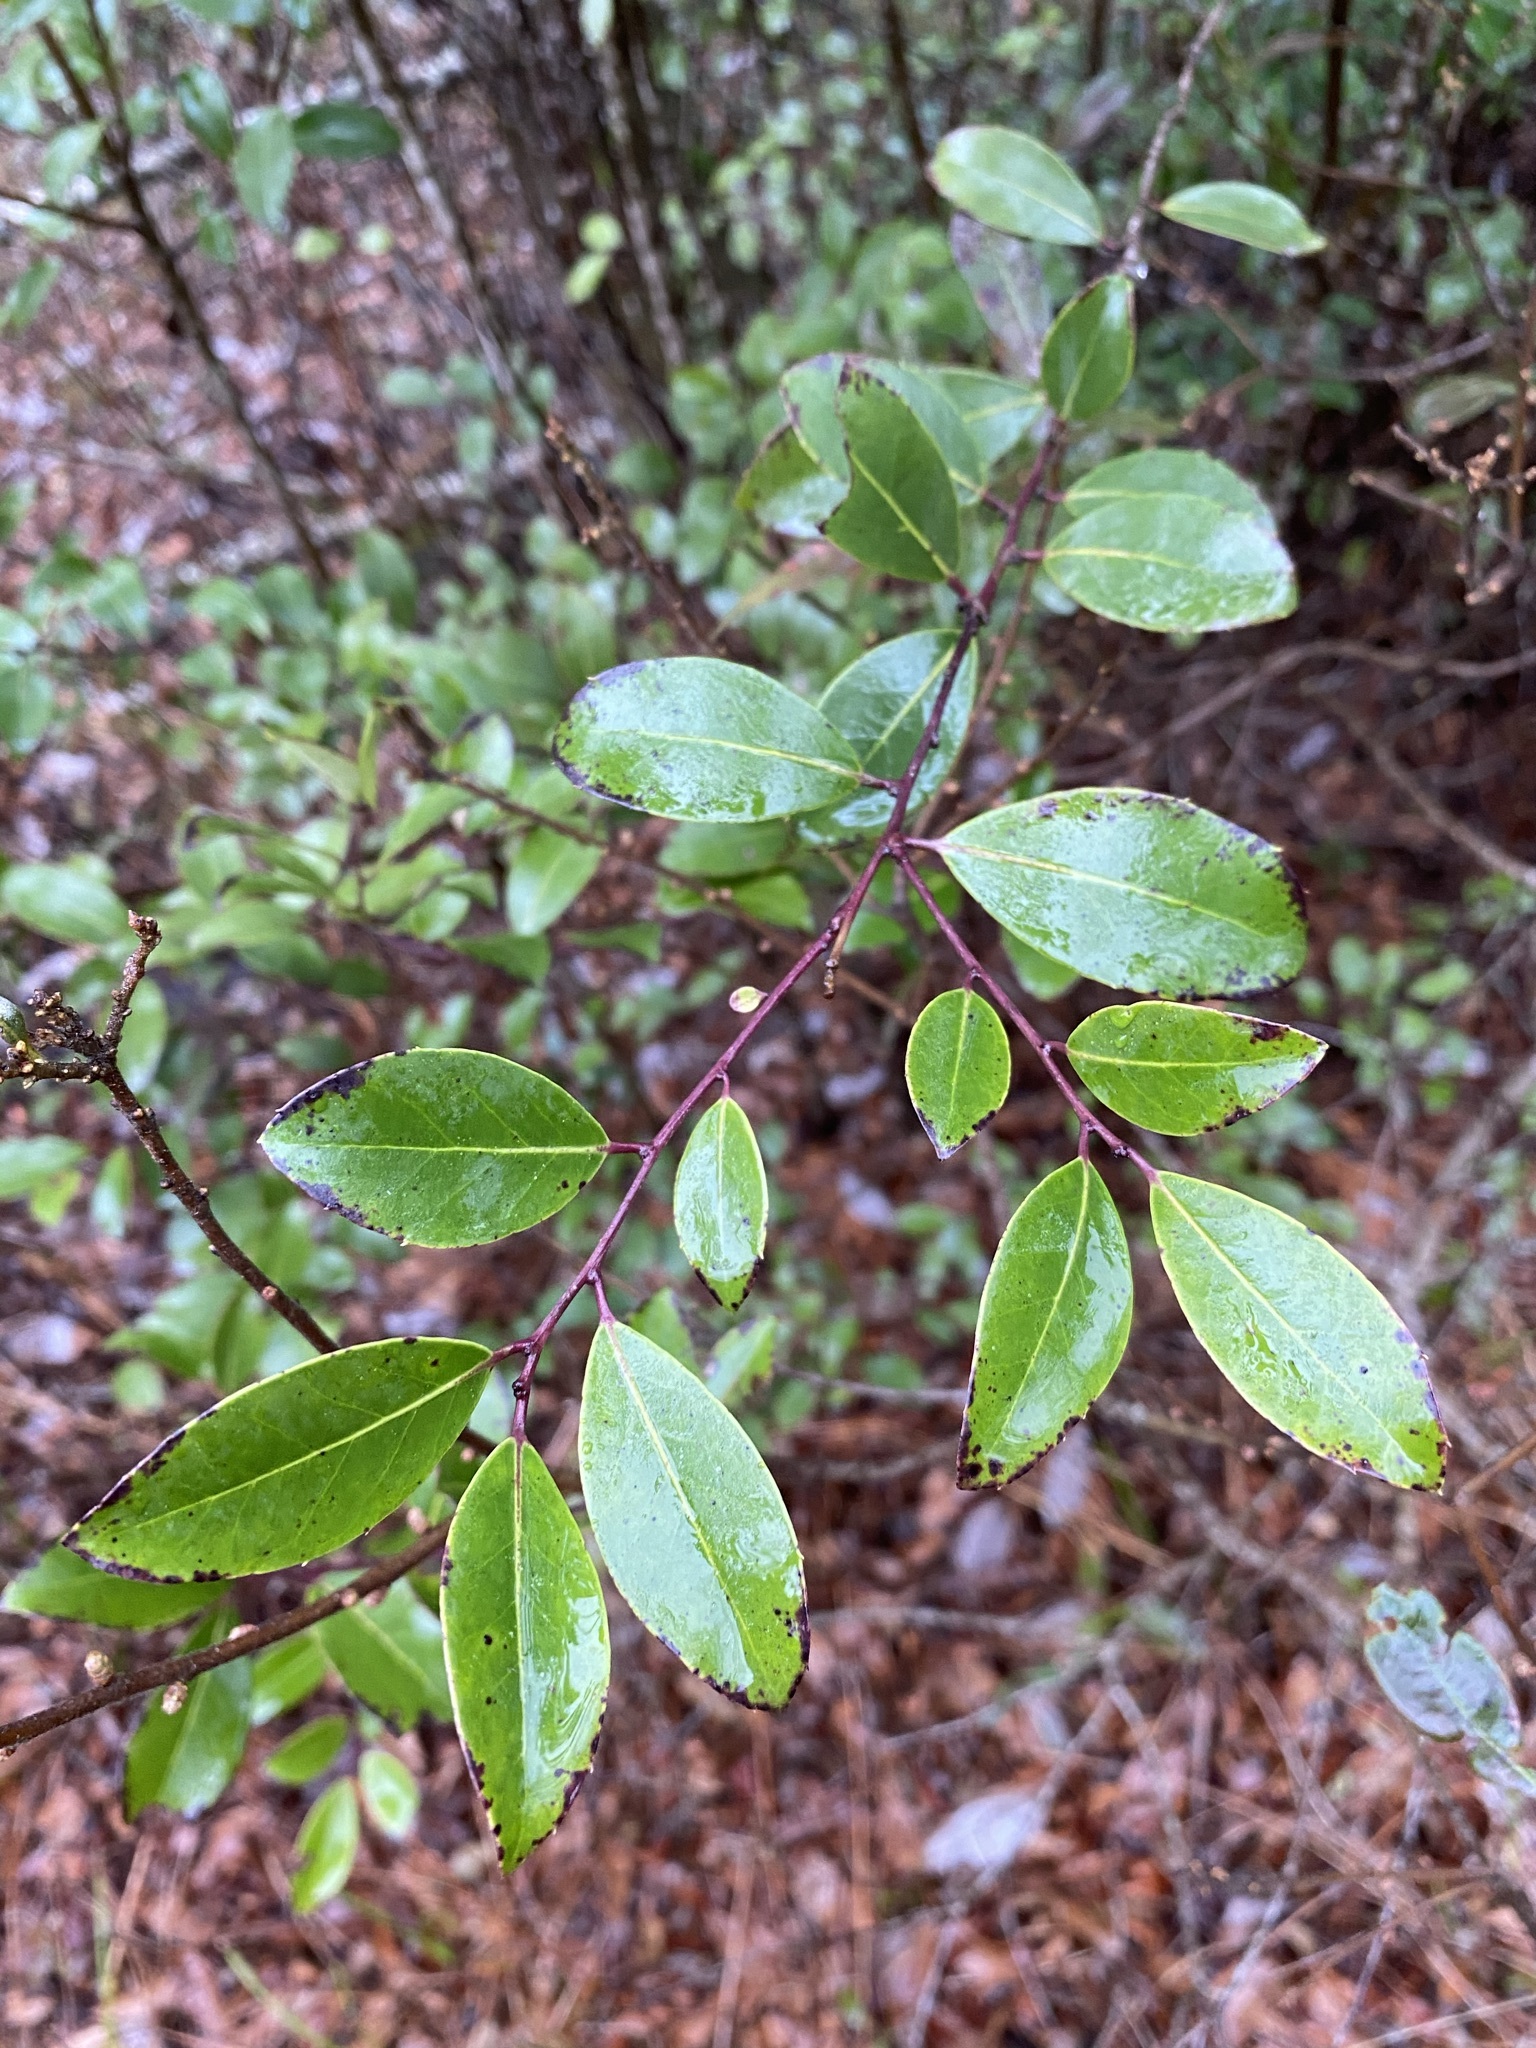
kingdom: Plantae
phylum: Tracheophyta
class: Magnoliopsida
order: Aquifoliales
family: Aquifoliaceae
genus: Ilex
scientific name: Ilex coriacea
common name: Sweet gallberry
